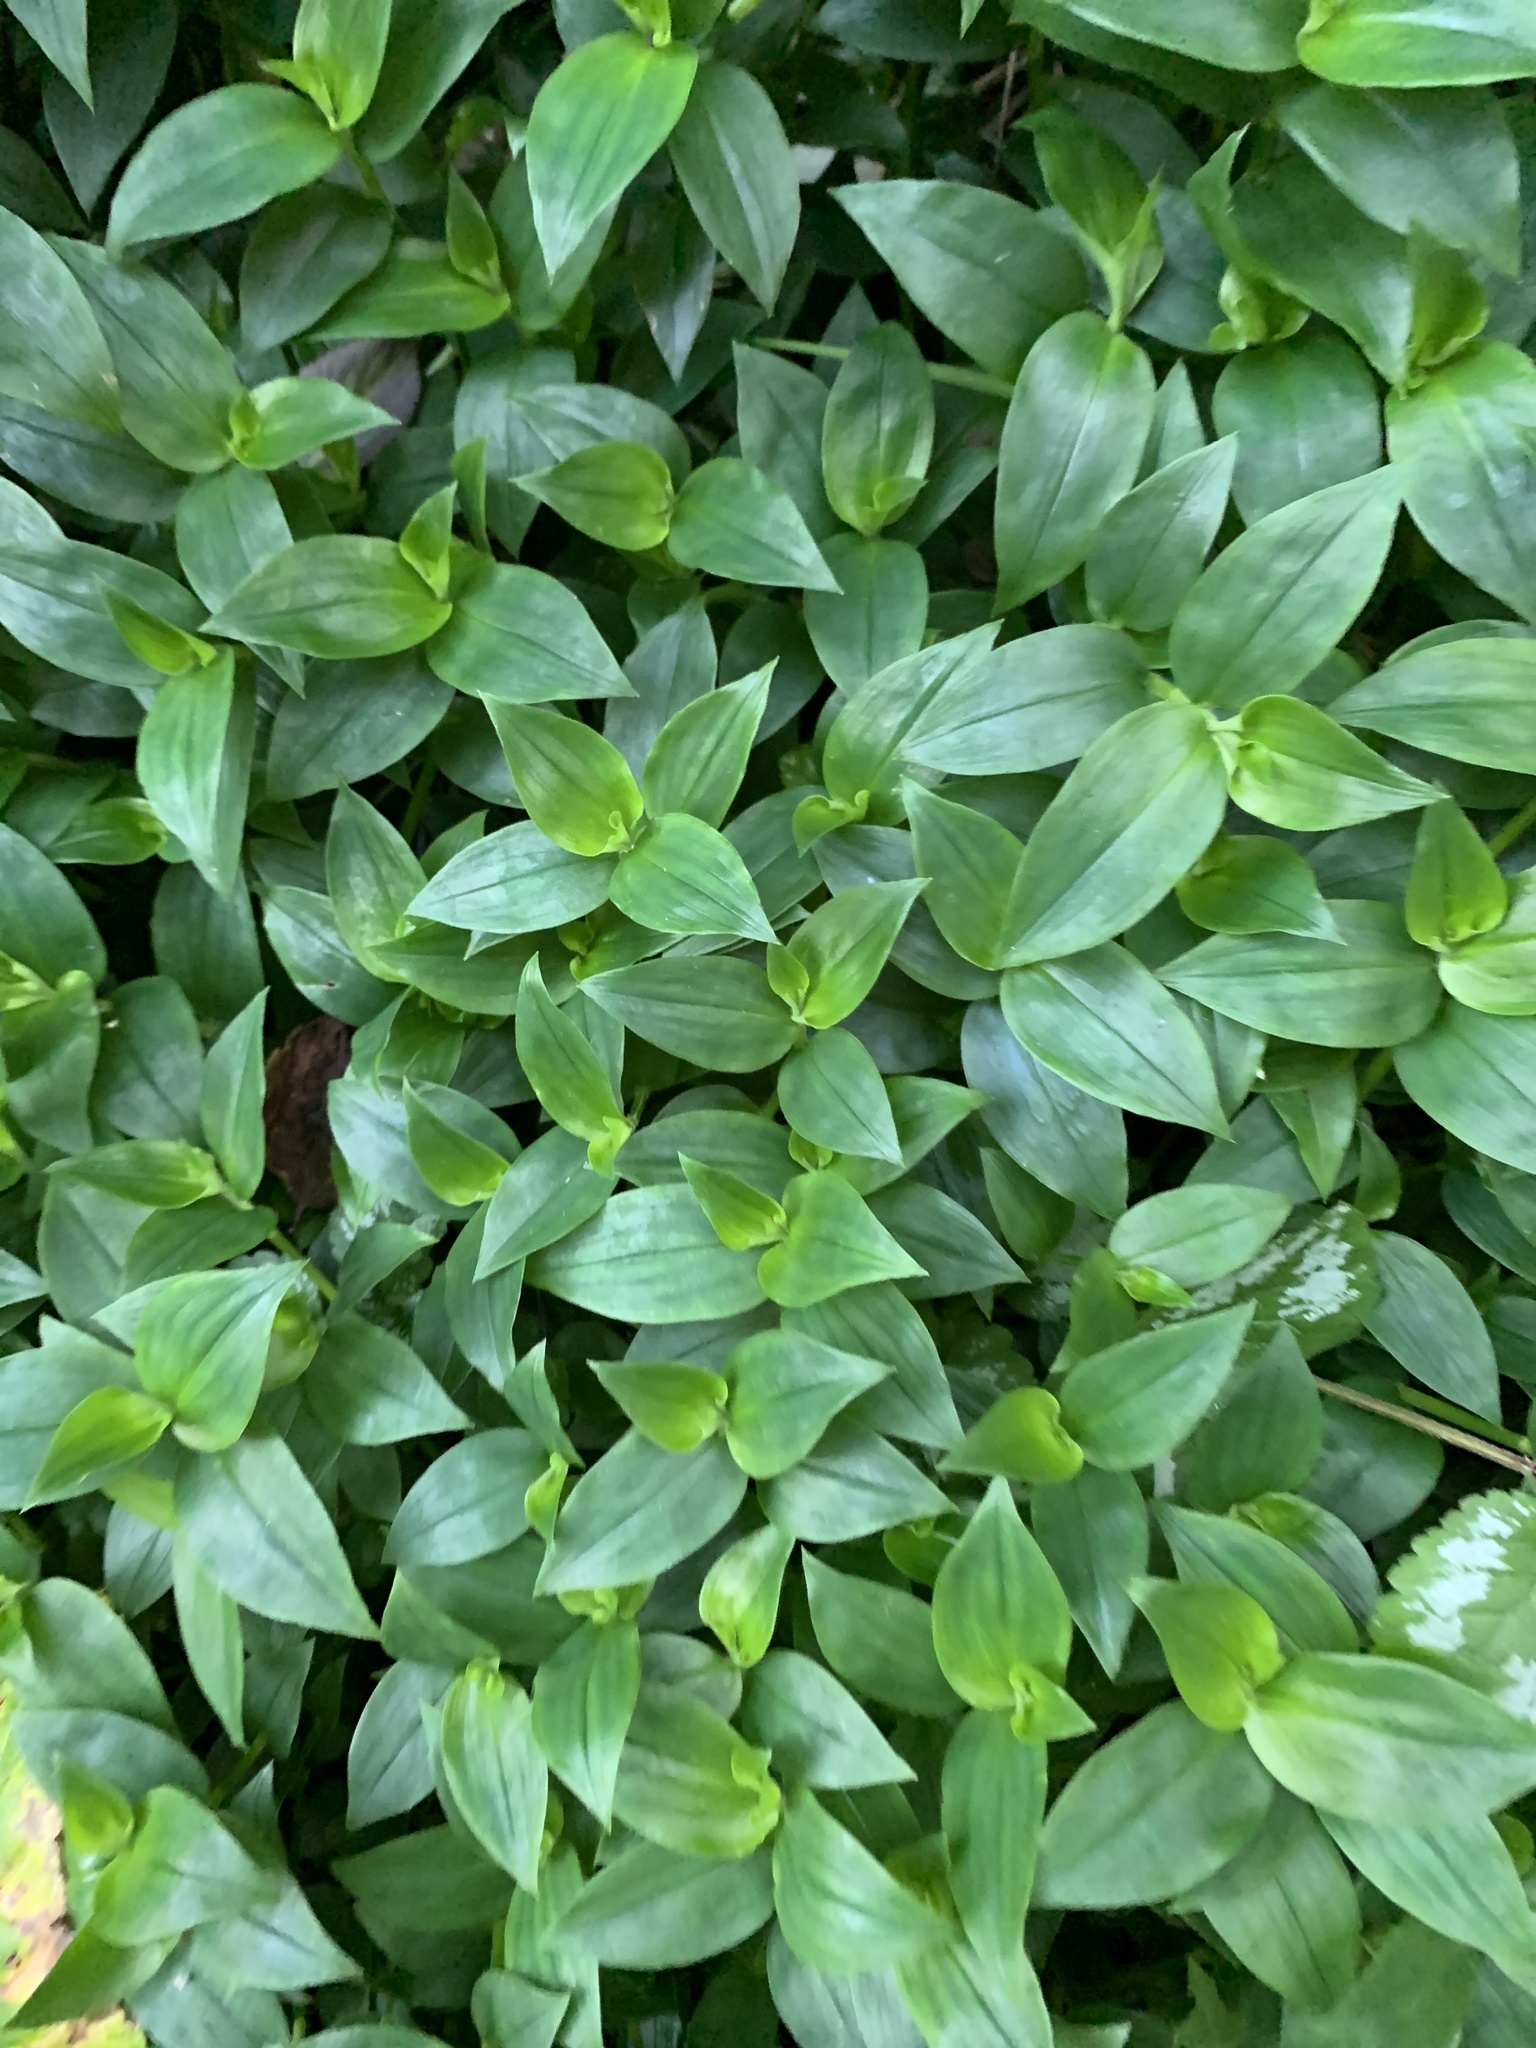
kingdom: Plantae
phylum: Tracheophyta
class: Liliopsida
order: Commelinales
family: Commelinaceae
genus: Tradescantia
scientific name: Tradescantia fluminensis
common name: Wandering-jew
